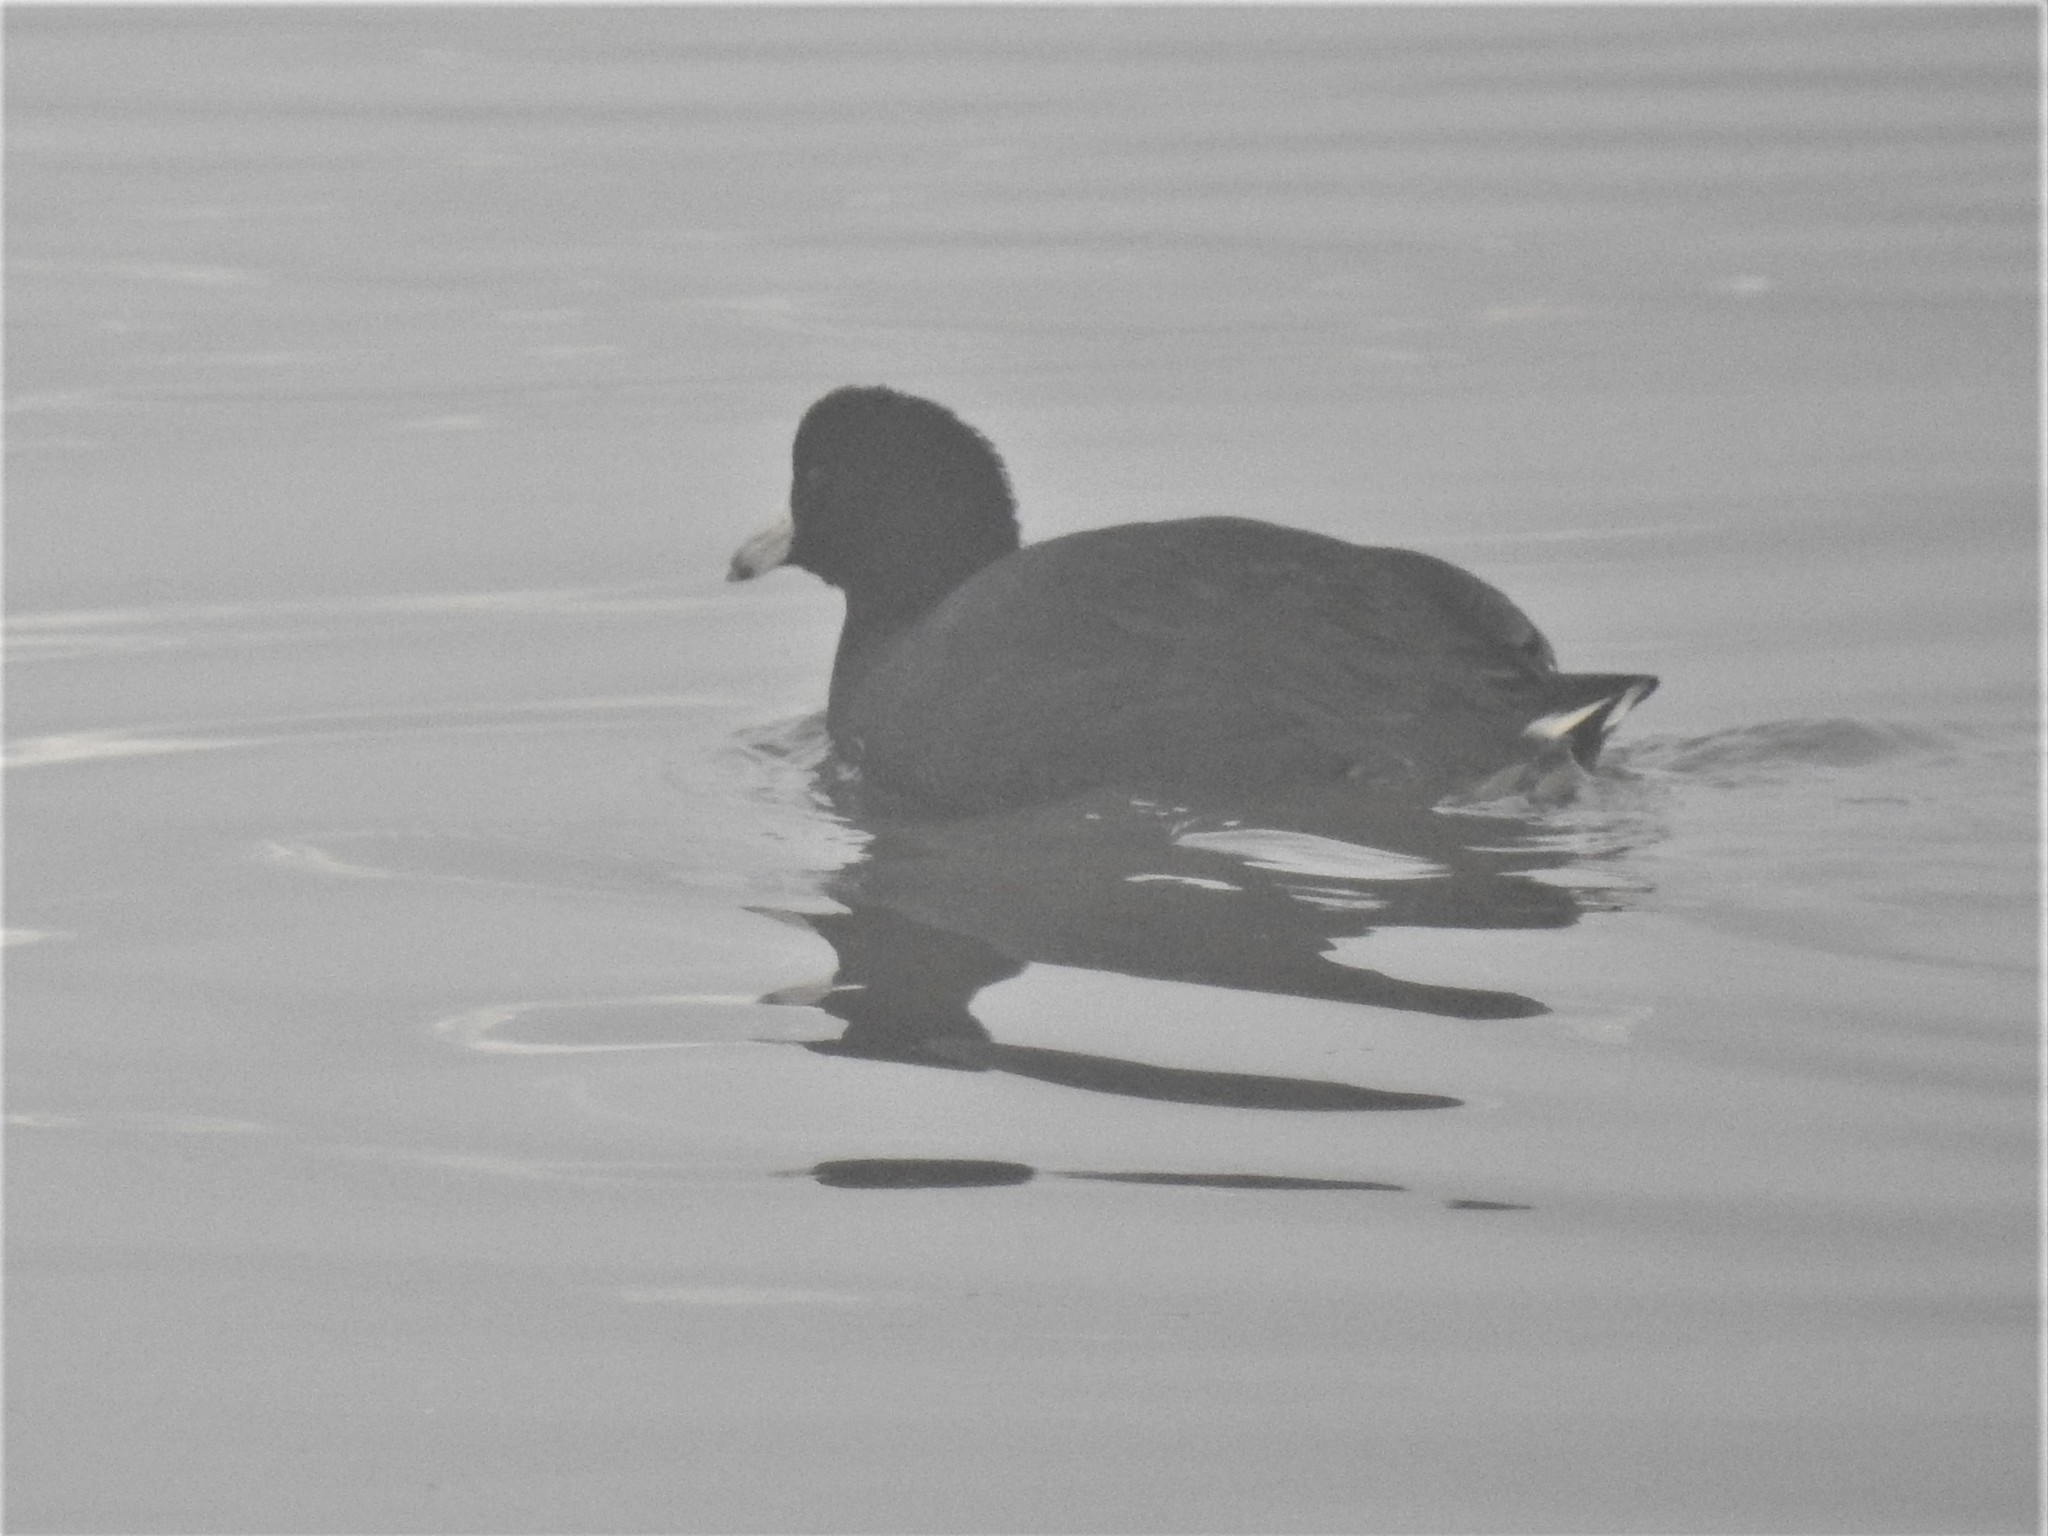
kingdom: Animalia
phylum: Chordata
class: Aves
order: Gruiformes
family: Rallidae
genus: Fulica
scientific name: Fulica americana
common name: American coot
